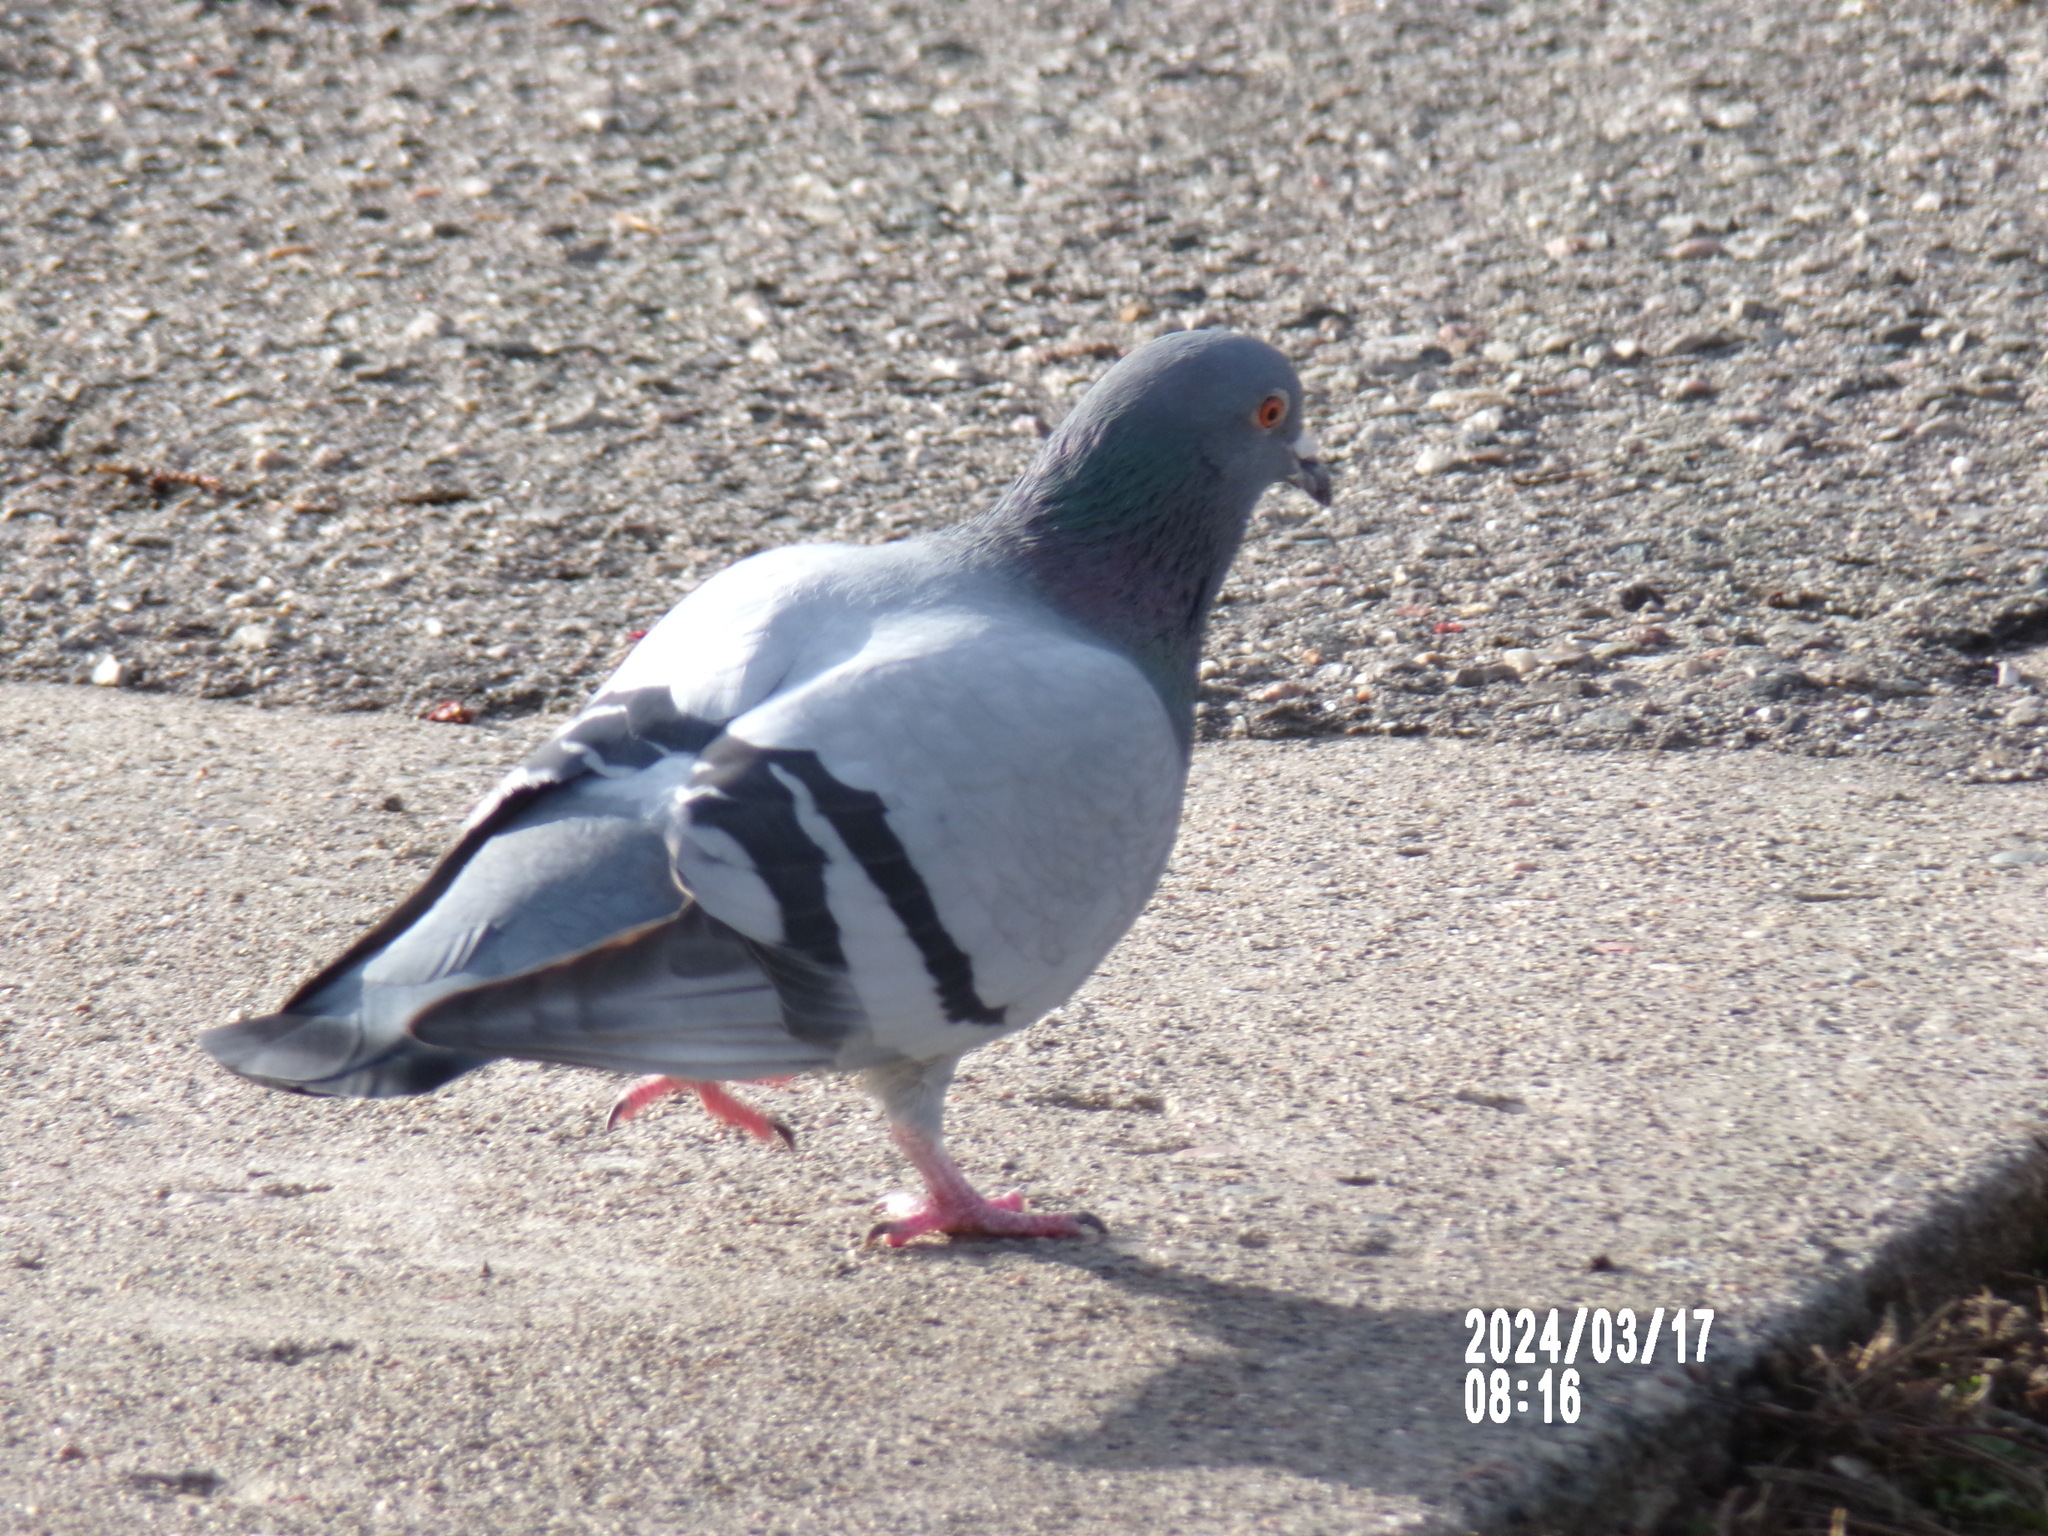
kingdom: Animalia
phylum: Chordata
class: Aves
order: Columbiformes
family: Columbidae
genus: Columba
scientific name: Columba livia
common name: Rock pigeon
